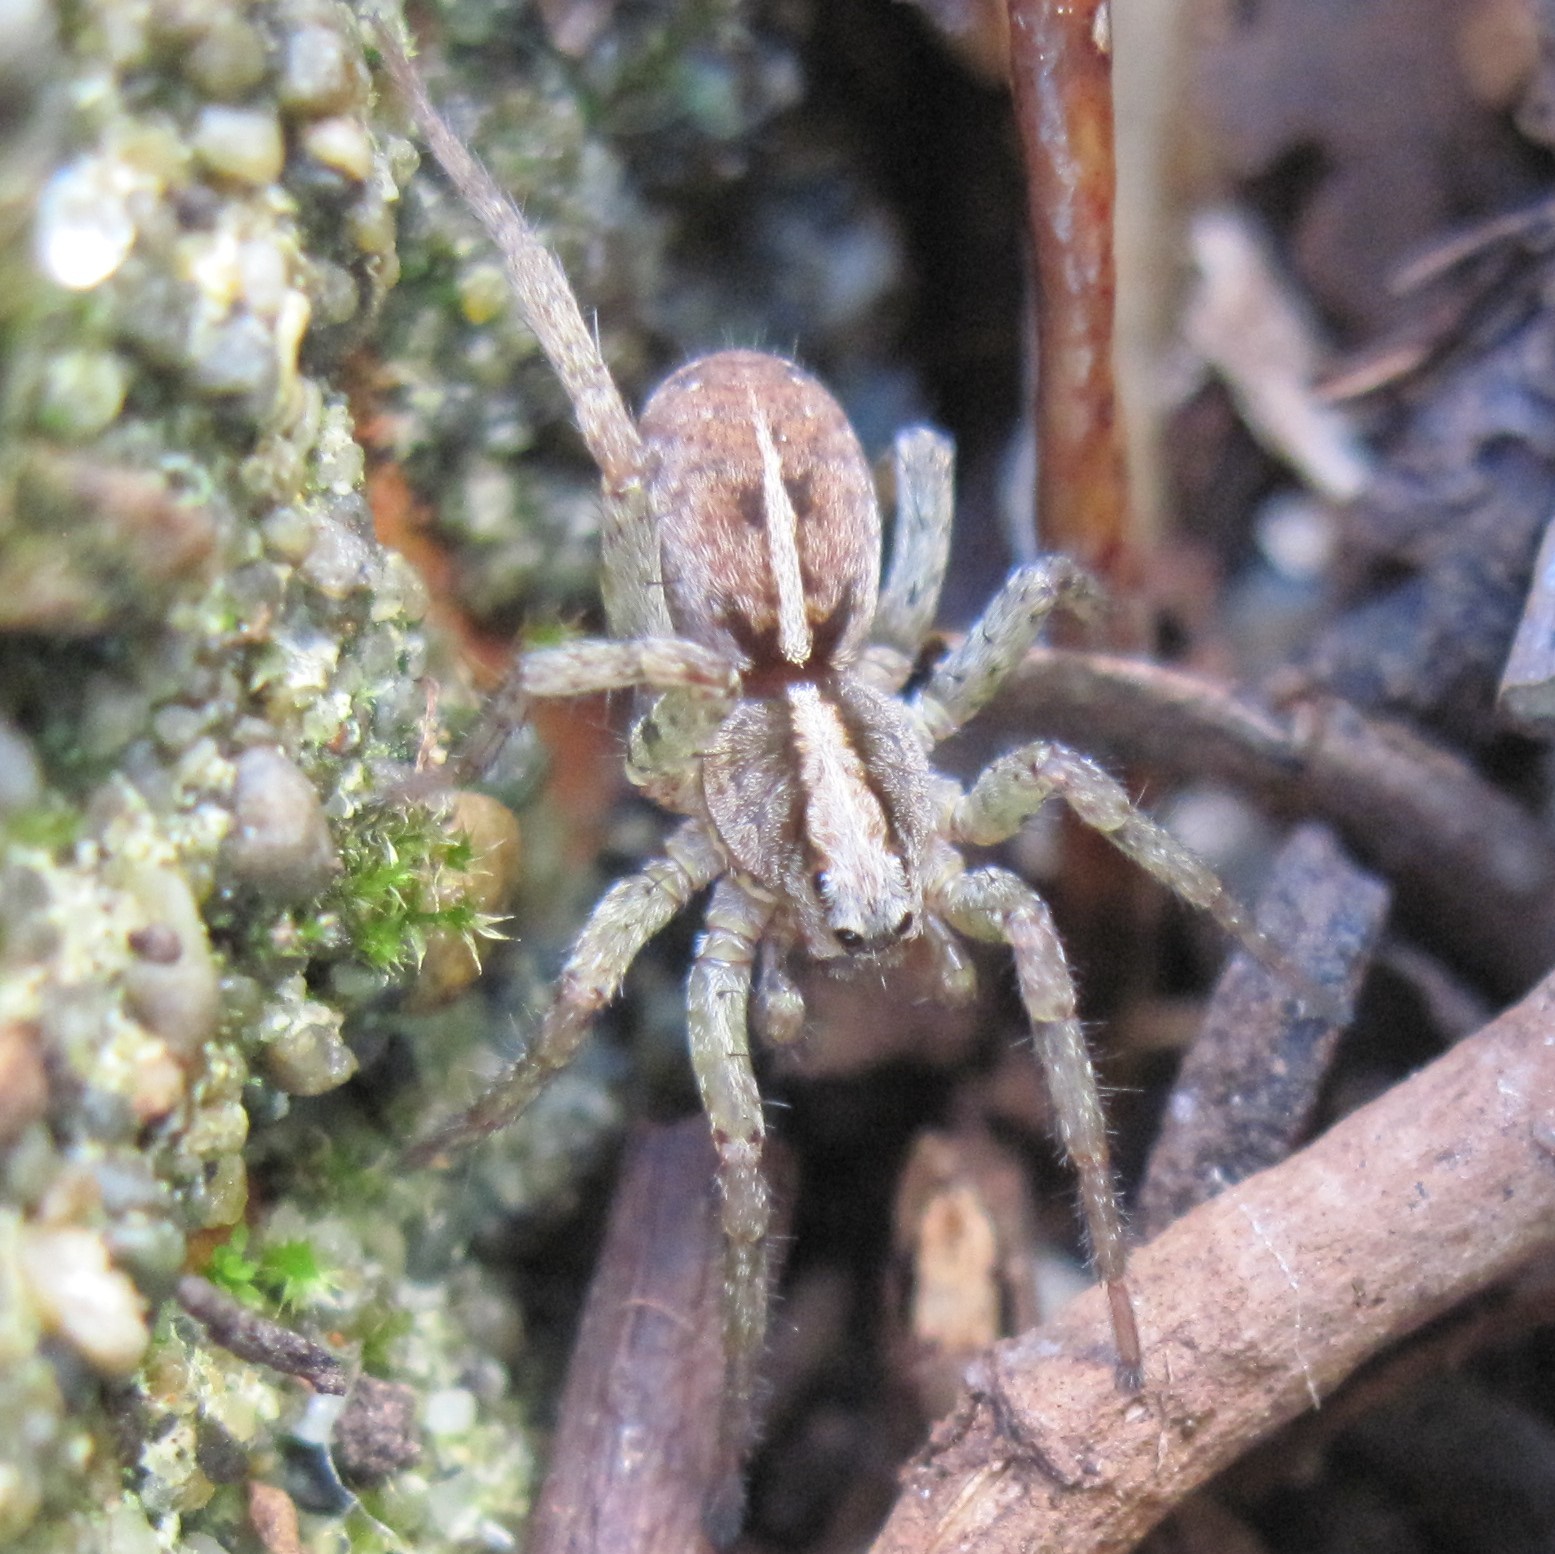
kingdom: Animalia
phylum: Arthropoda
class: Arachnida
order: Araneae
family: Lycosidae
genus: Anoteropsis
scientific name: Anoteropsis hilaris
